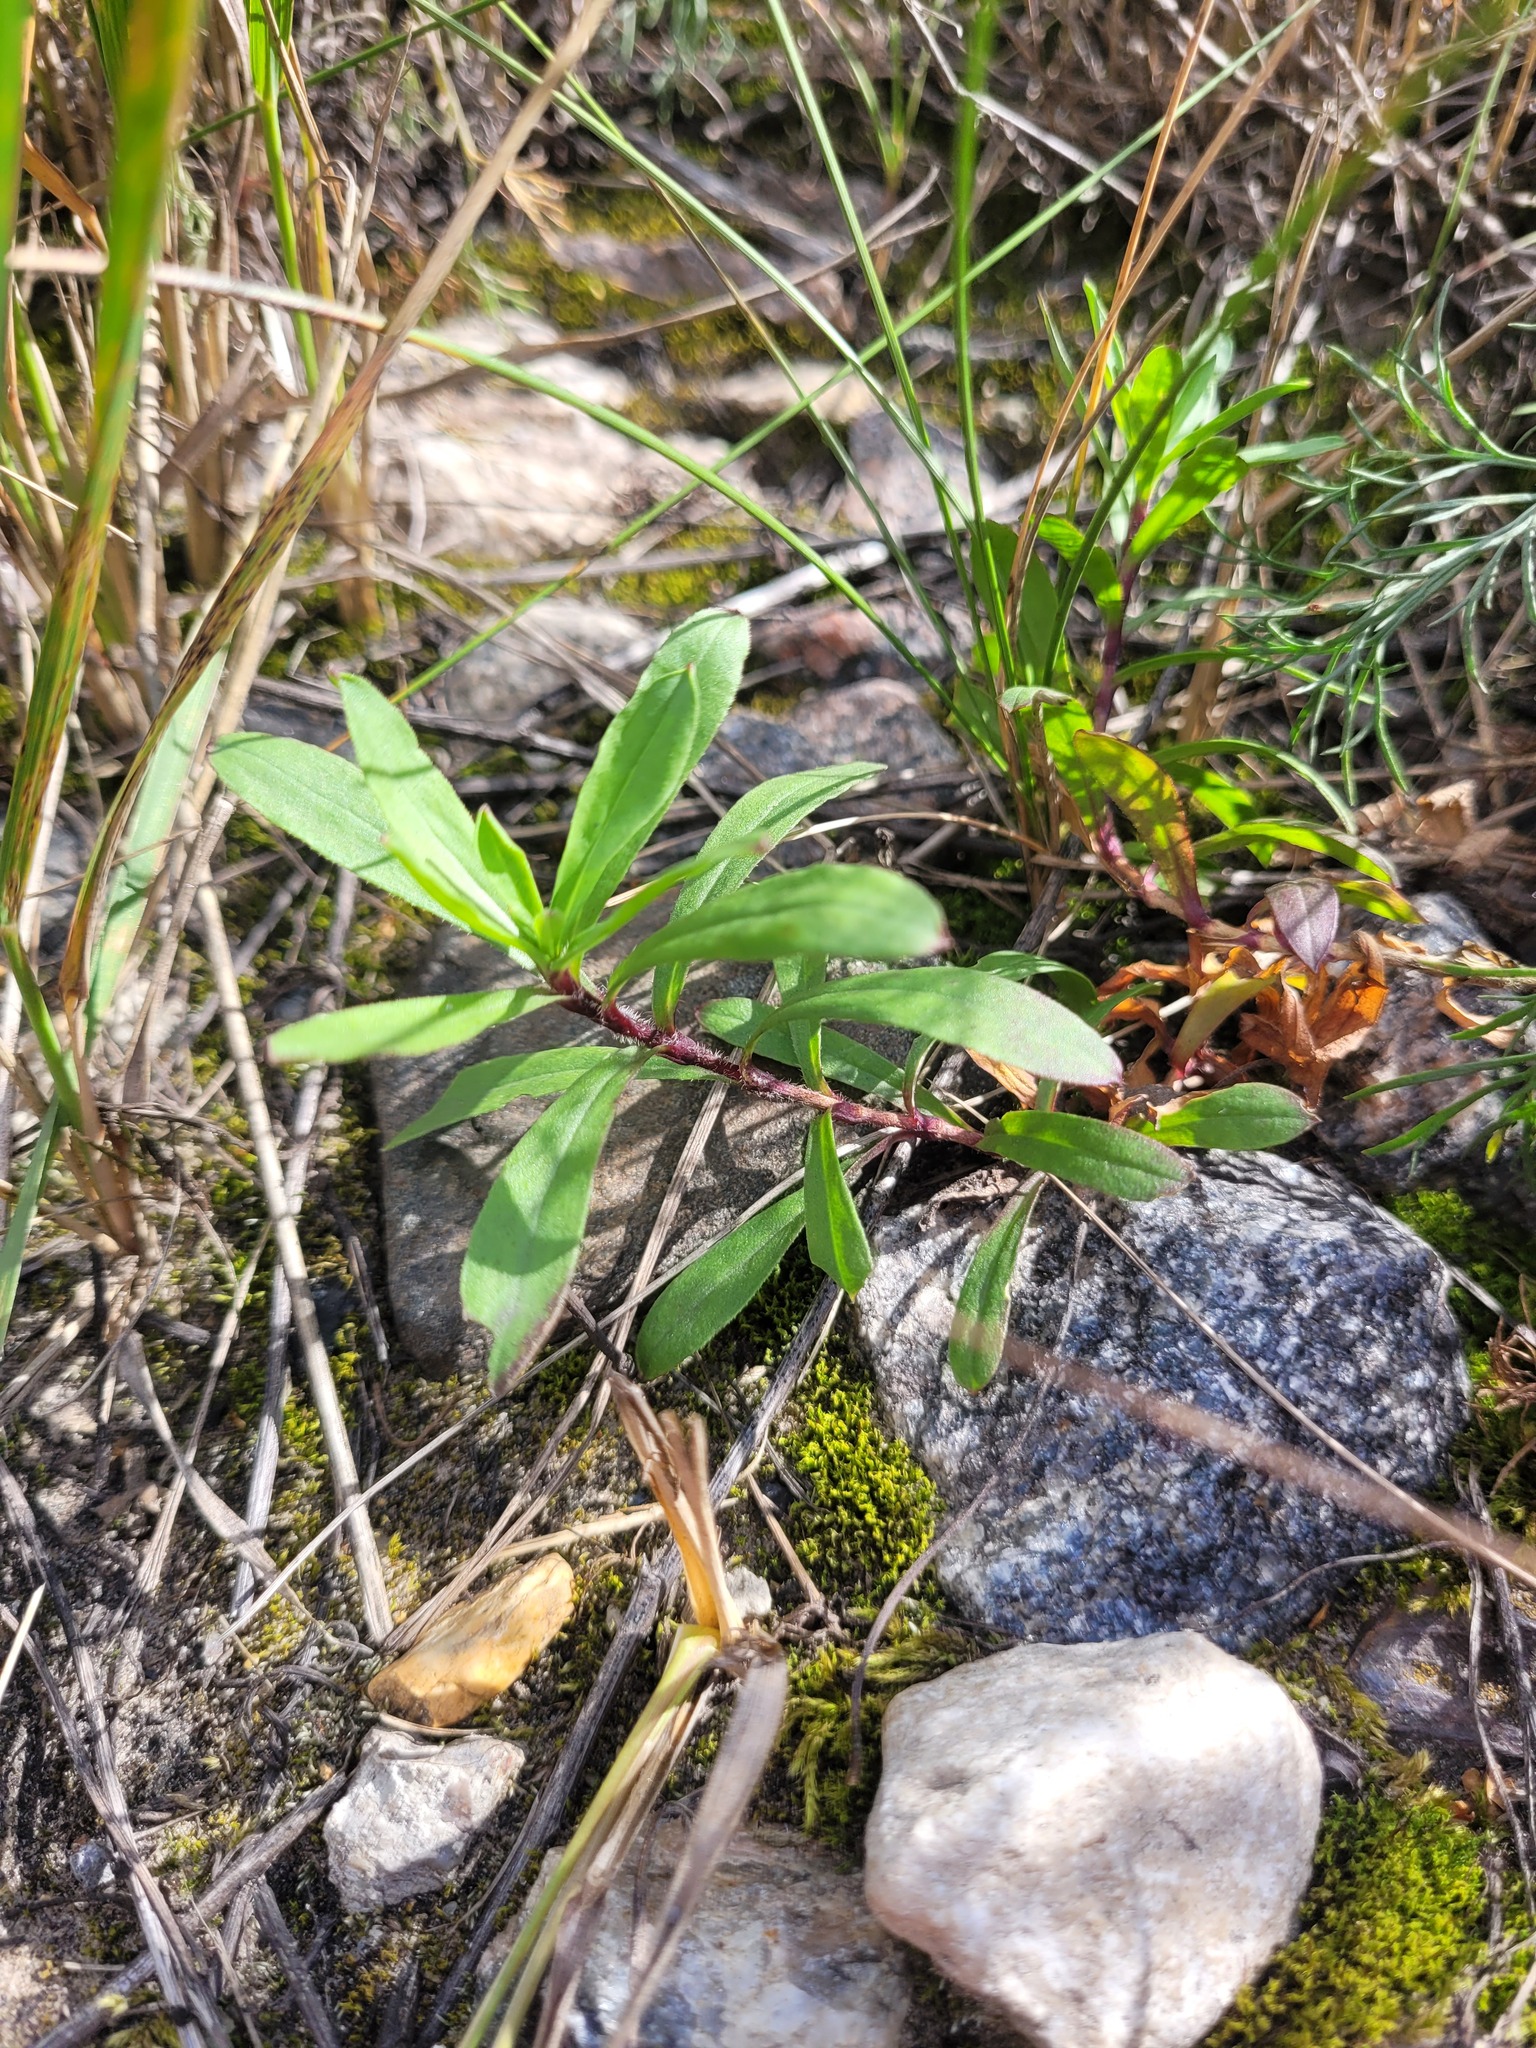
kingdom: Plantae
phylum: Tracheophyta
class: Magnoliopsida
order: Caryophyllales
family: Caryophyllaceae
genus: Silene
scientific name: Silene tatarica
